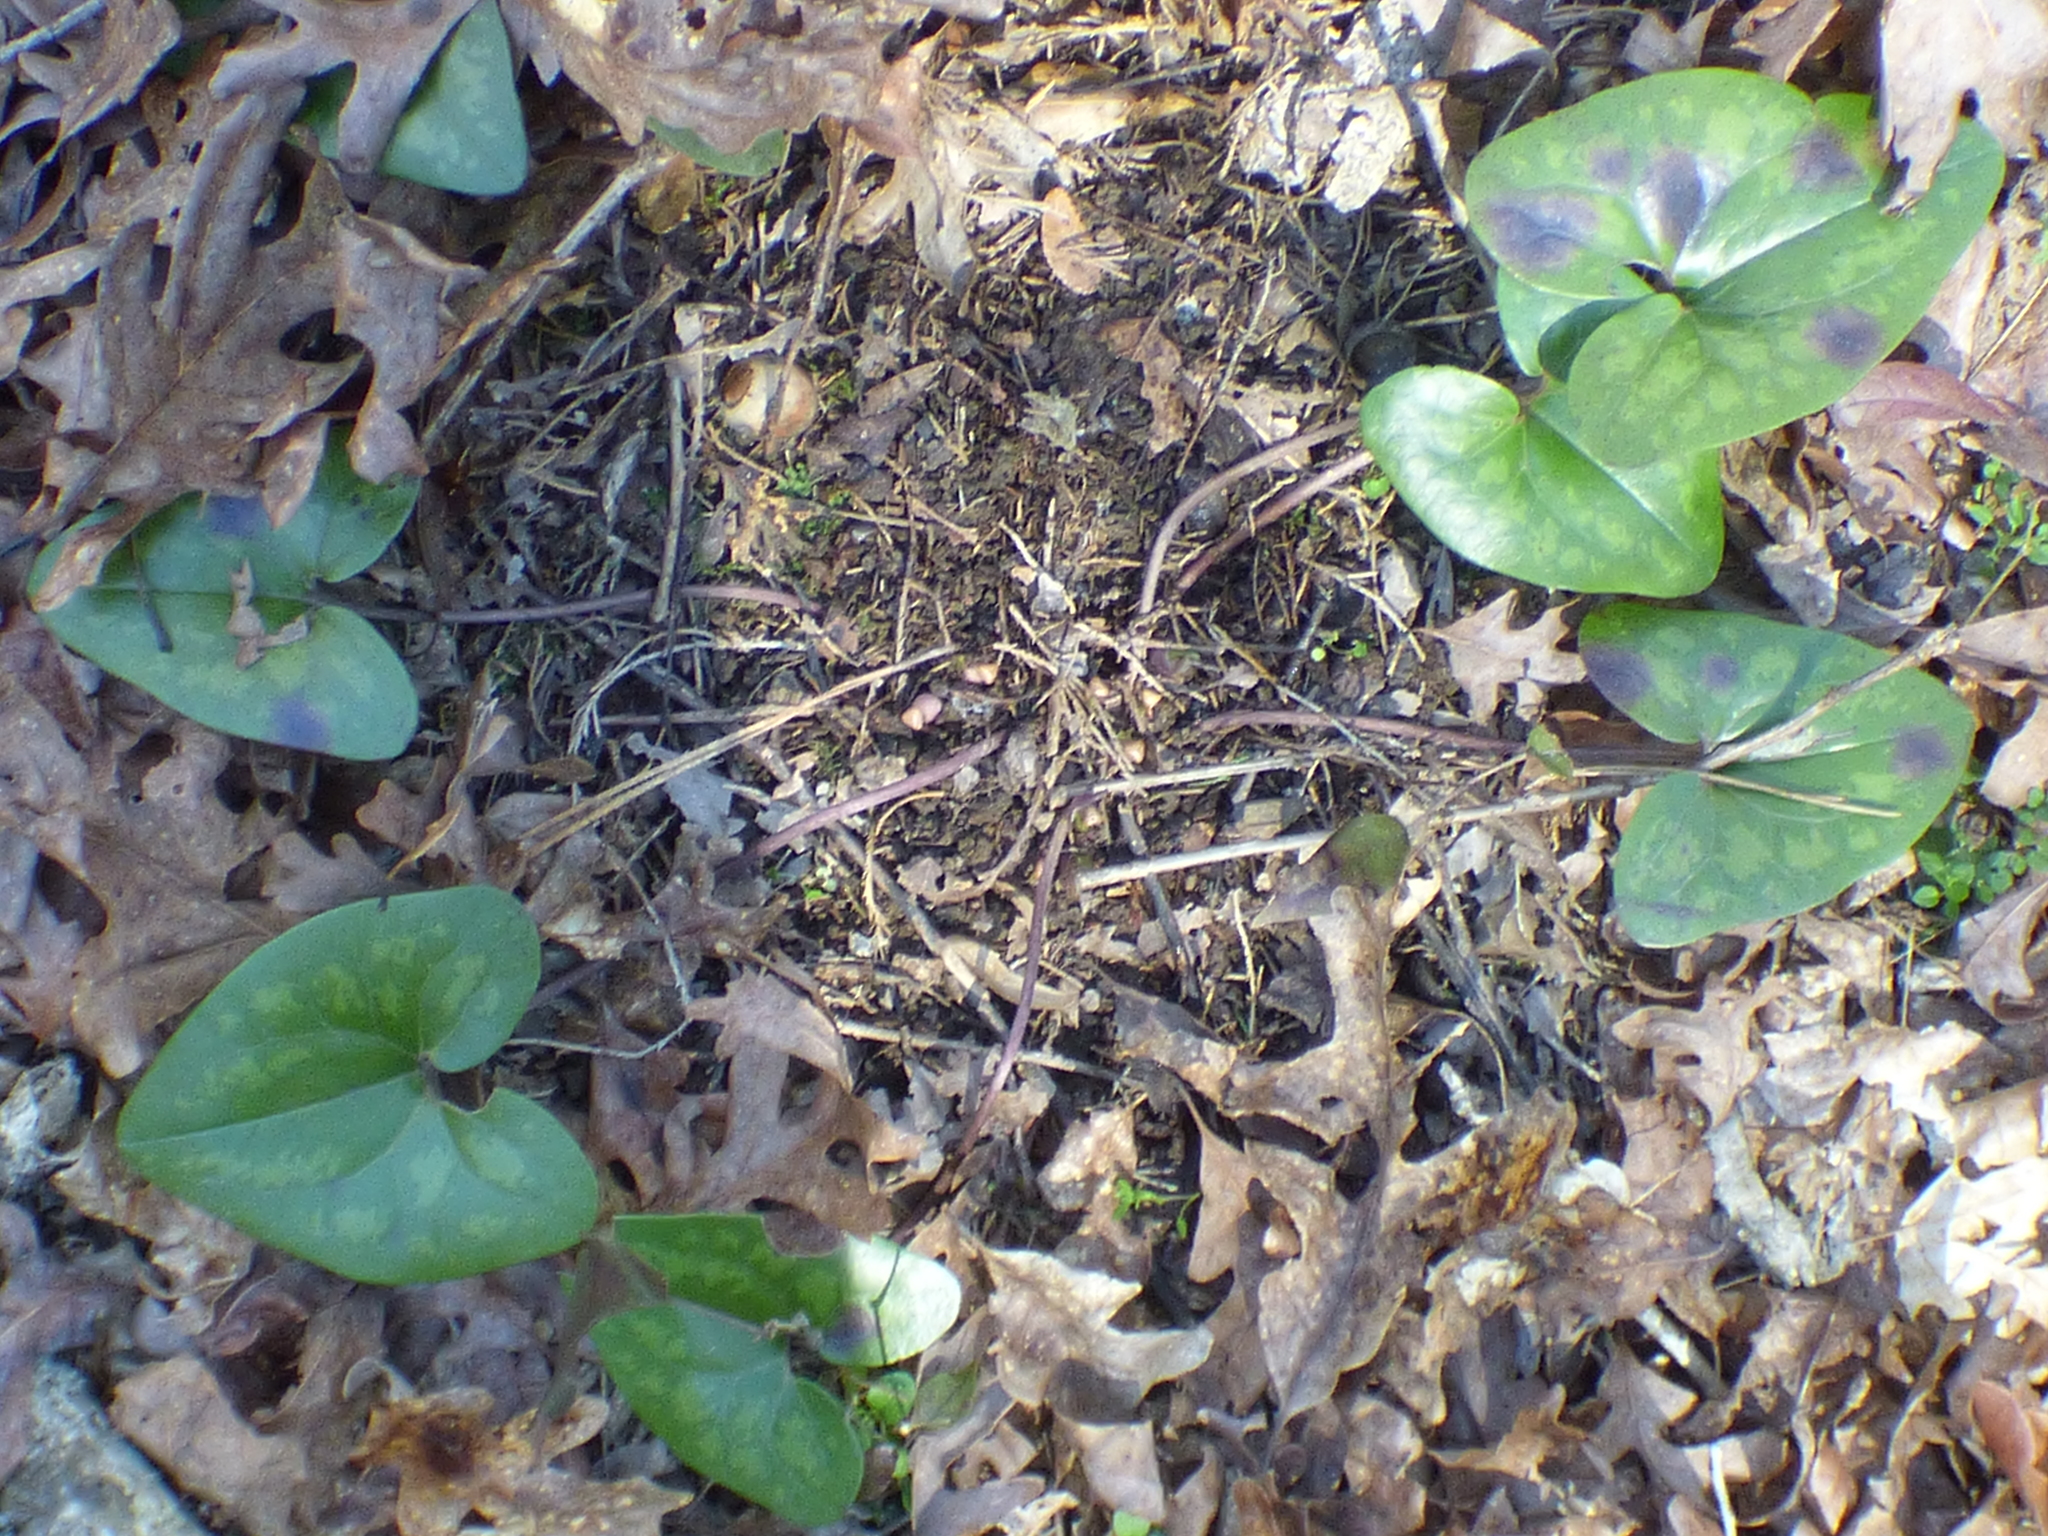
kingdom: Plantae
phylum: Tracheophyta
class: Magnoliopsida
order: Piperales
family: Aristolochiaceae
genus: Hexastylis
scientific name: Hexastylis arifolia
